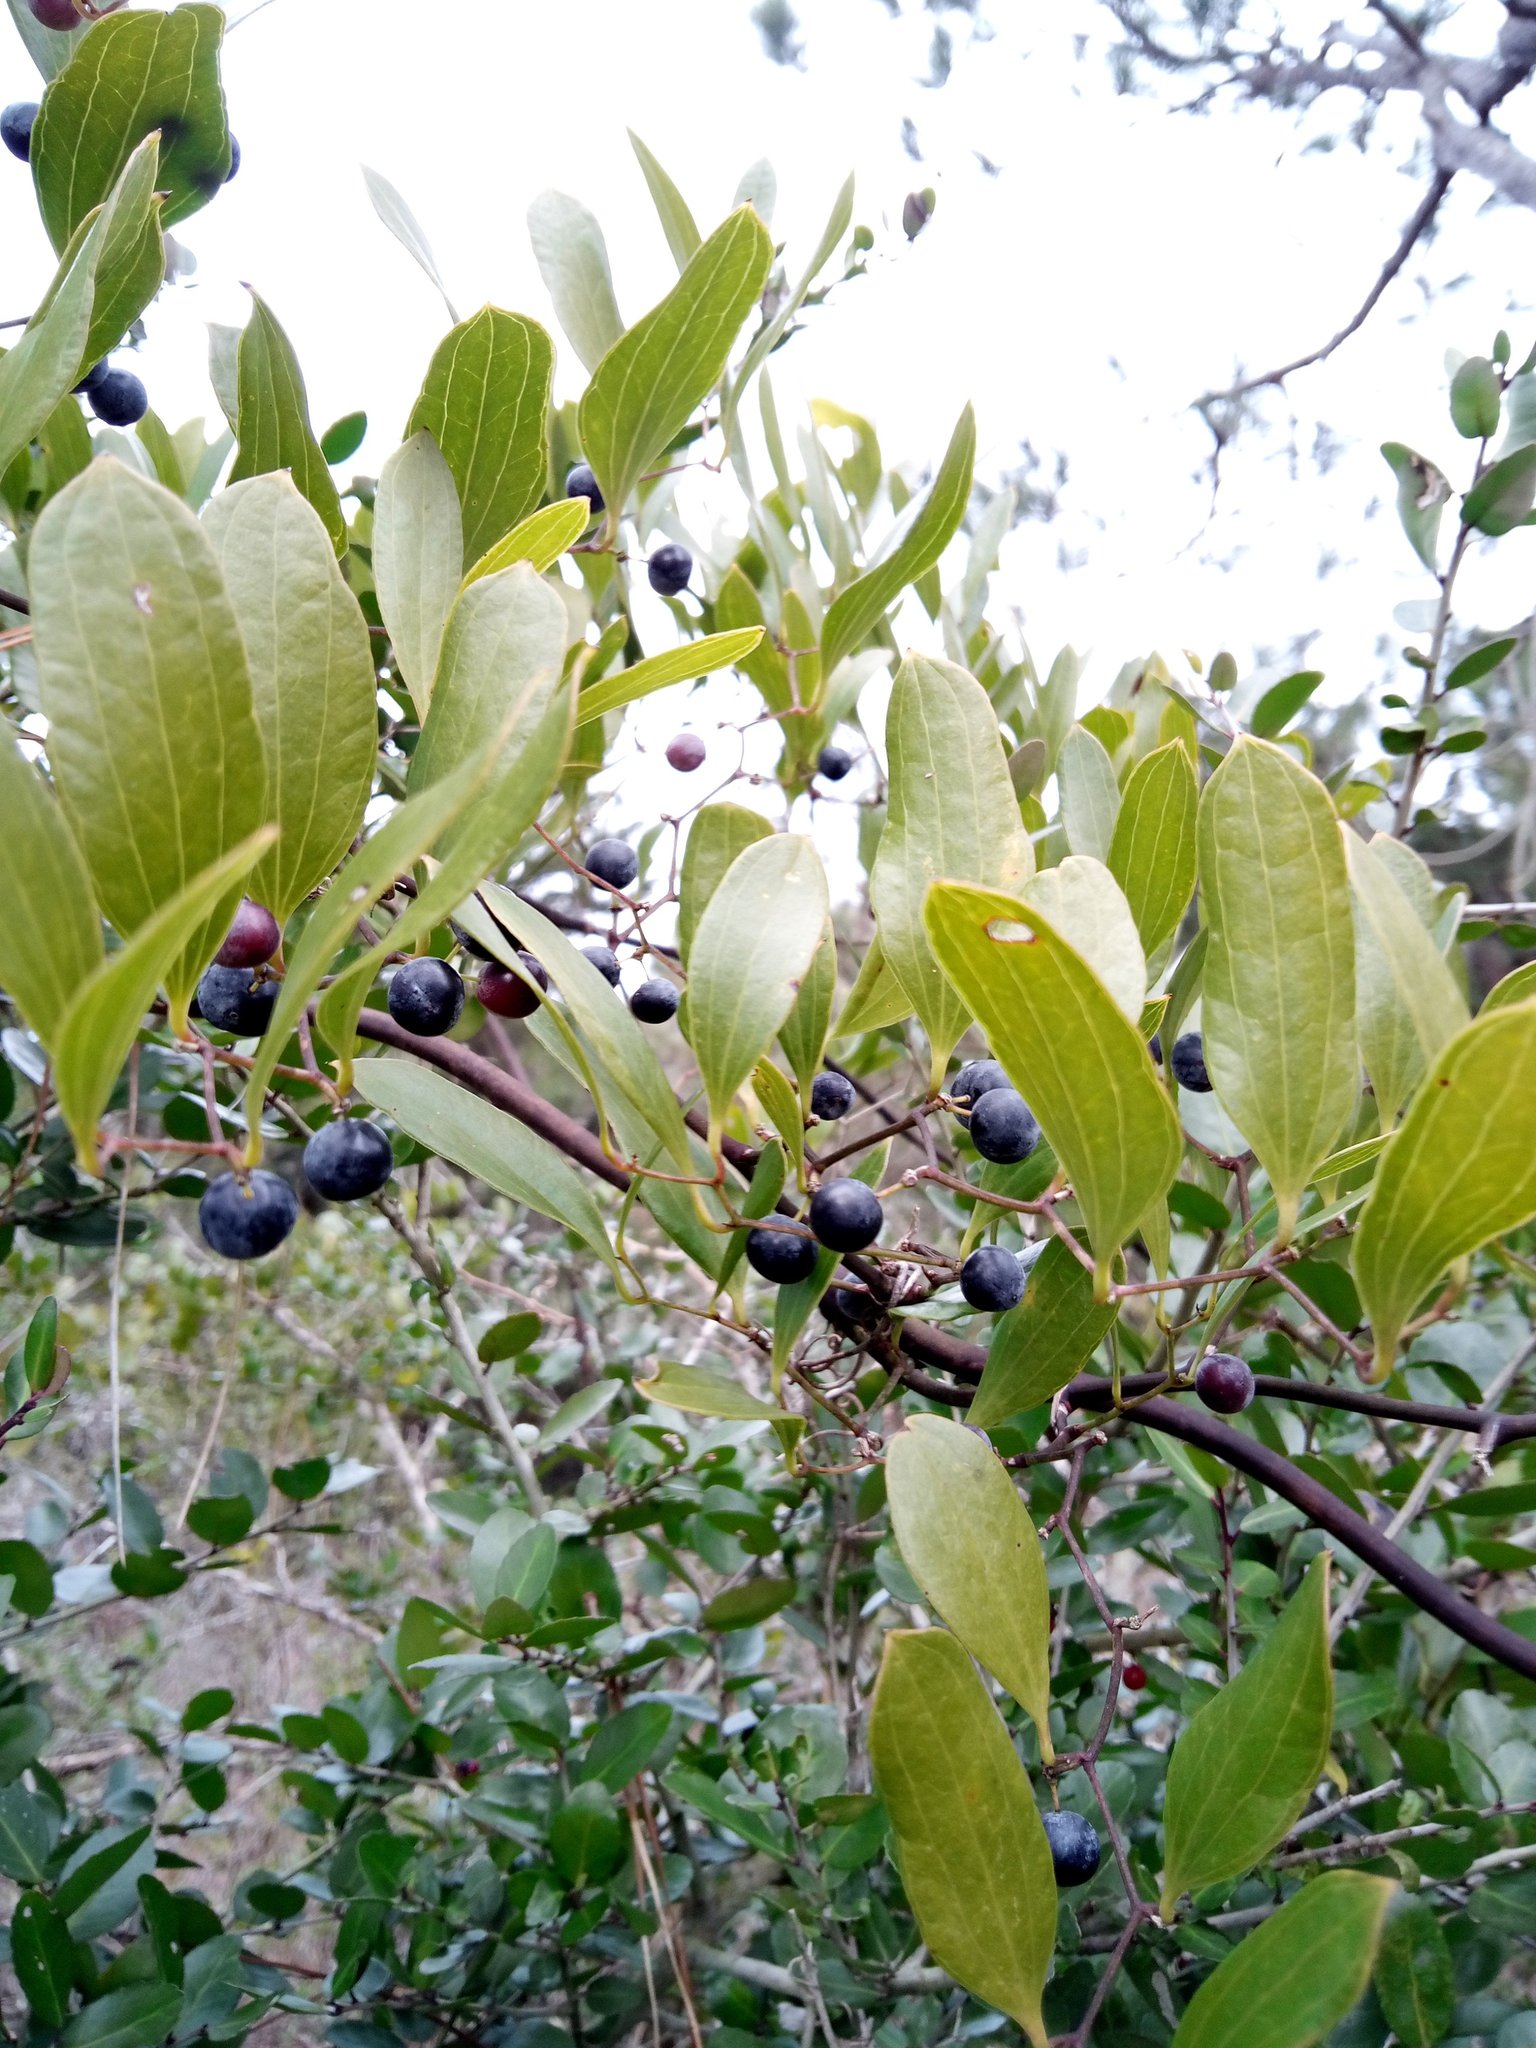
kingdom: Plantae
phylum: Tracheophyta
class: Liliopsida
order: Liliales
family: Smilacaceae
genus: Smilax
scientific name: Smilax laurifolia
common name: Bamboovine
